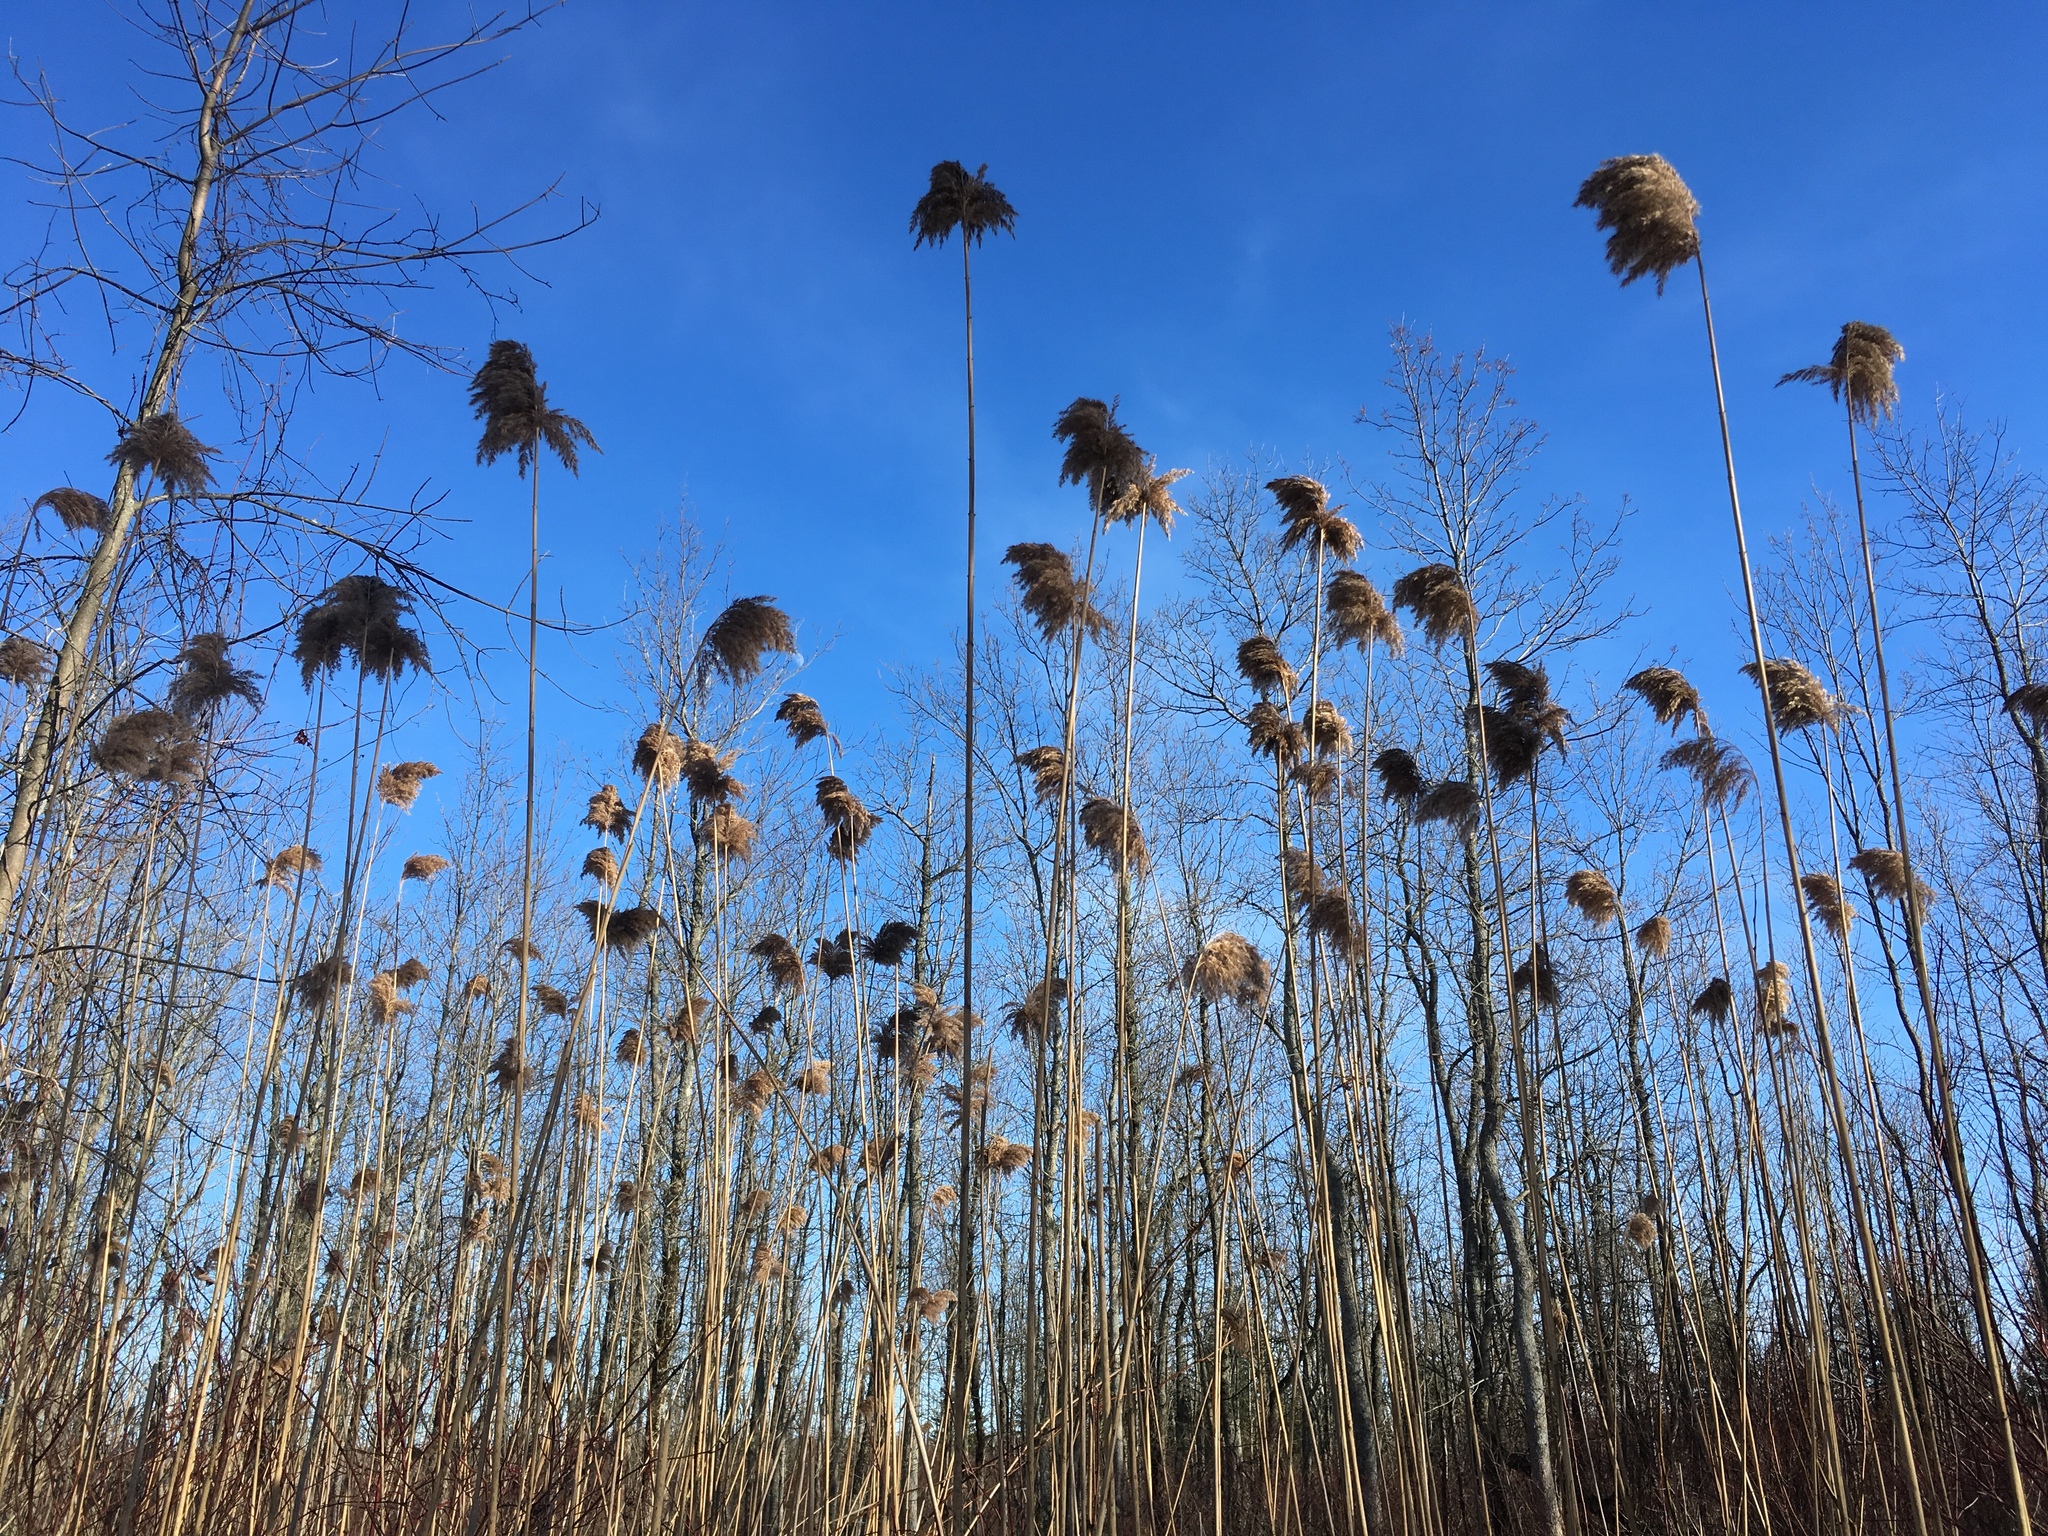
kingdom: Plantae
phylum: Tracheophyta
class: Liliopsida
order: Poales
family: Poaceae
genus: Phragmites
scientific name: Phragmites australis
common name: Common reed
